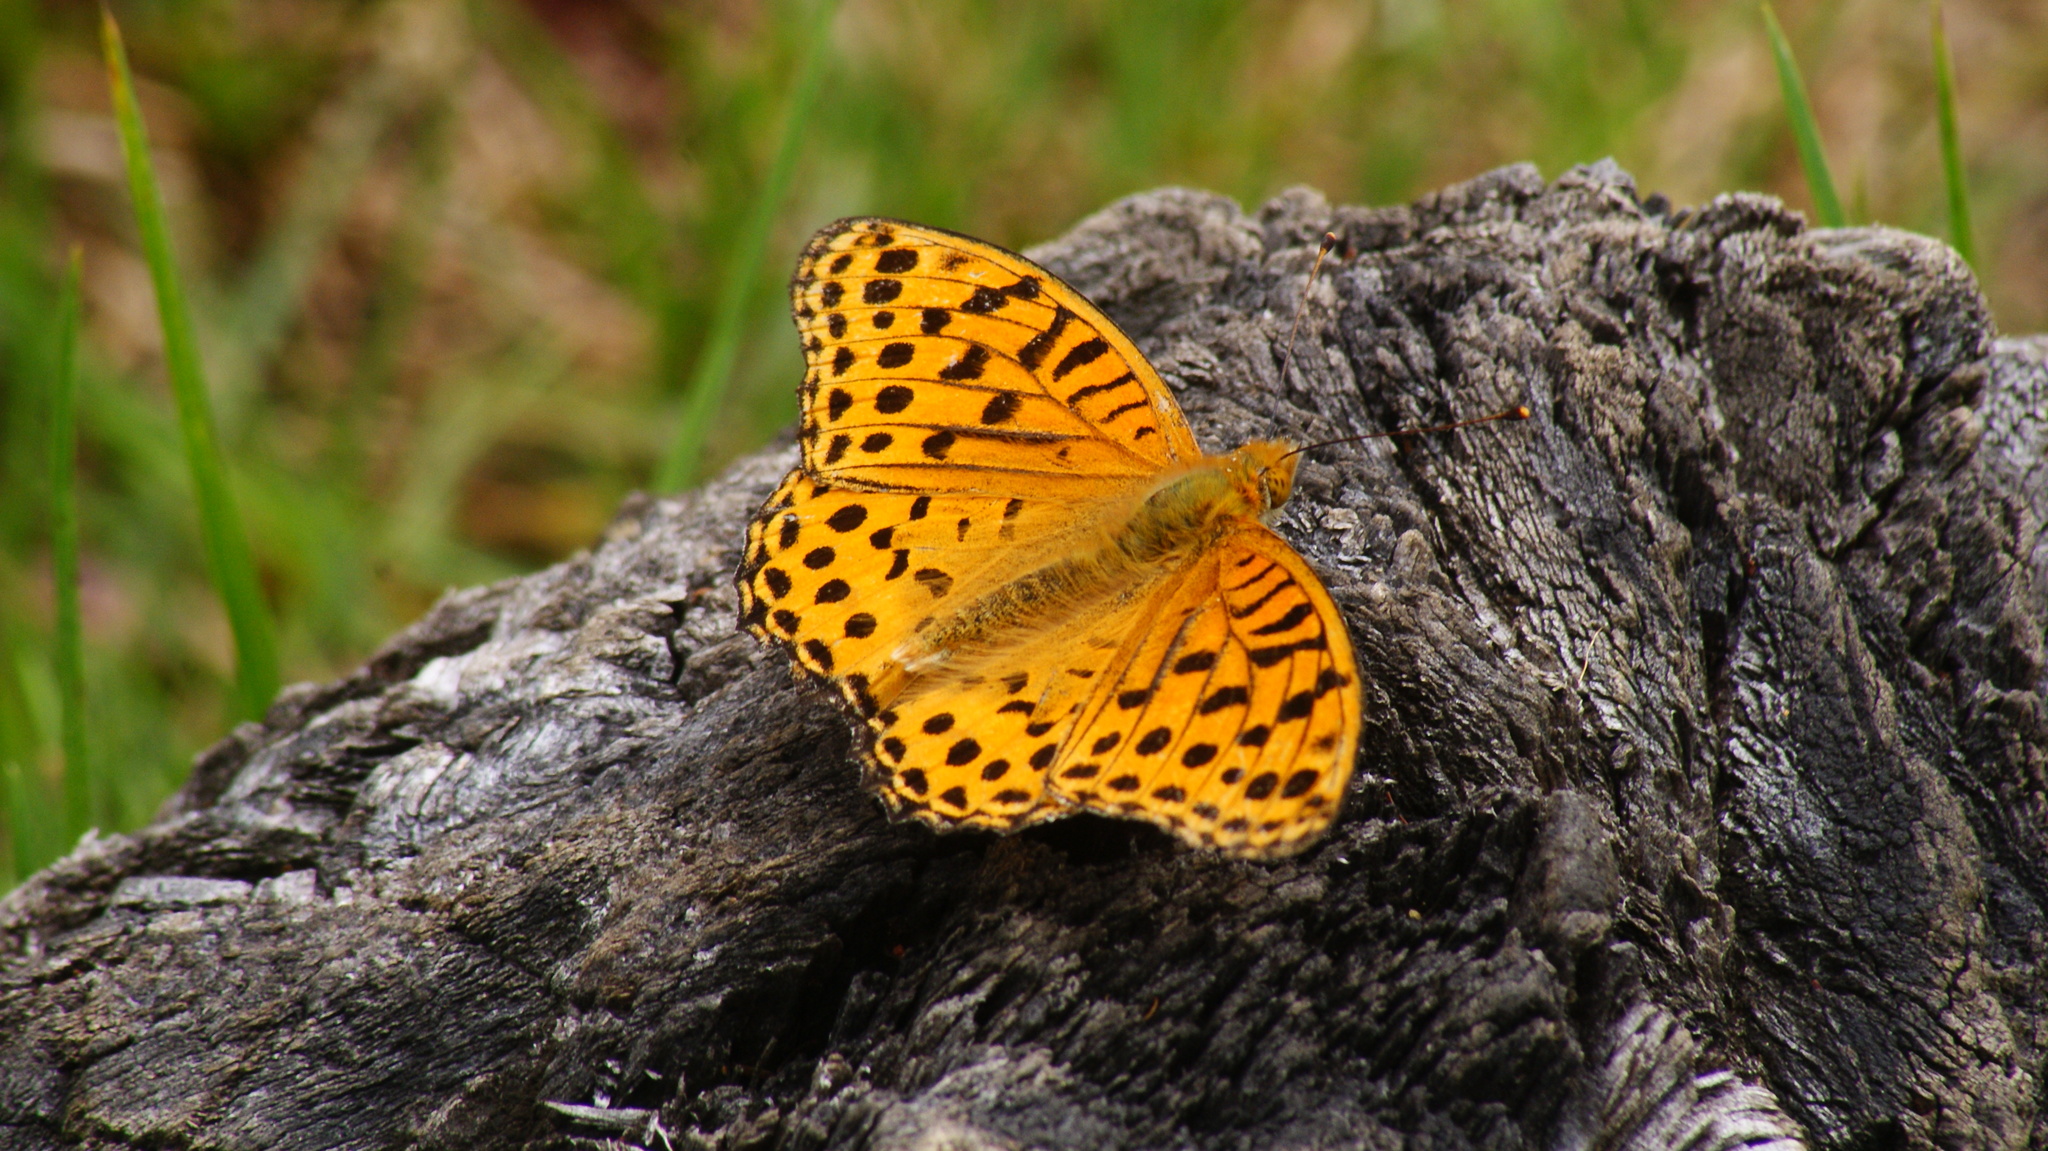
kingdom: Animalia
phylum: Arthropoda
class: Insecta
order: Lepidoptera
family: Nymphalidae
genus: Argyreus
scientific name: Argyreus hyperbius
